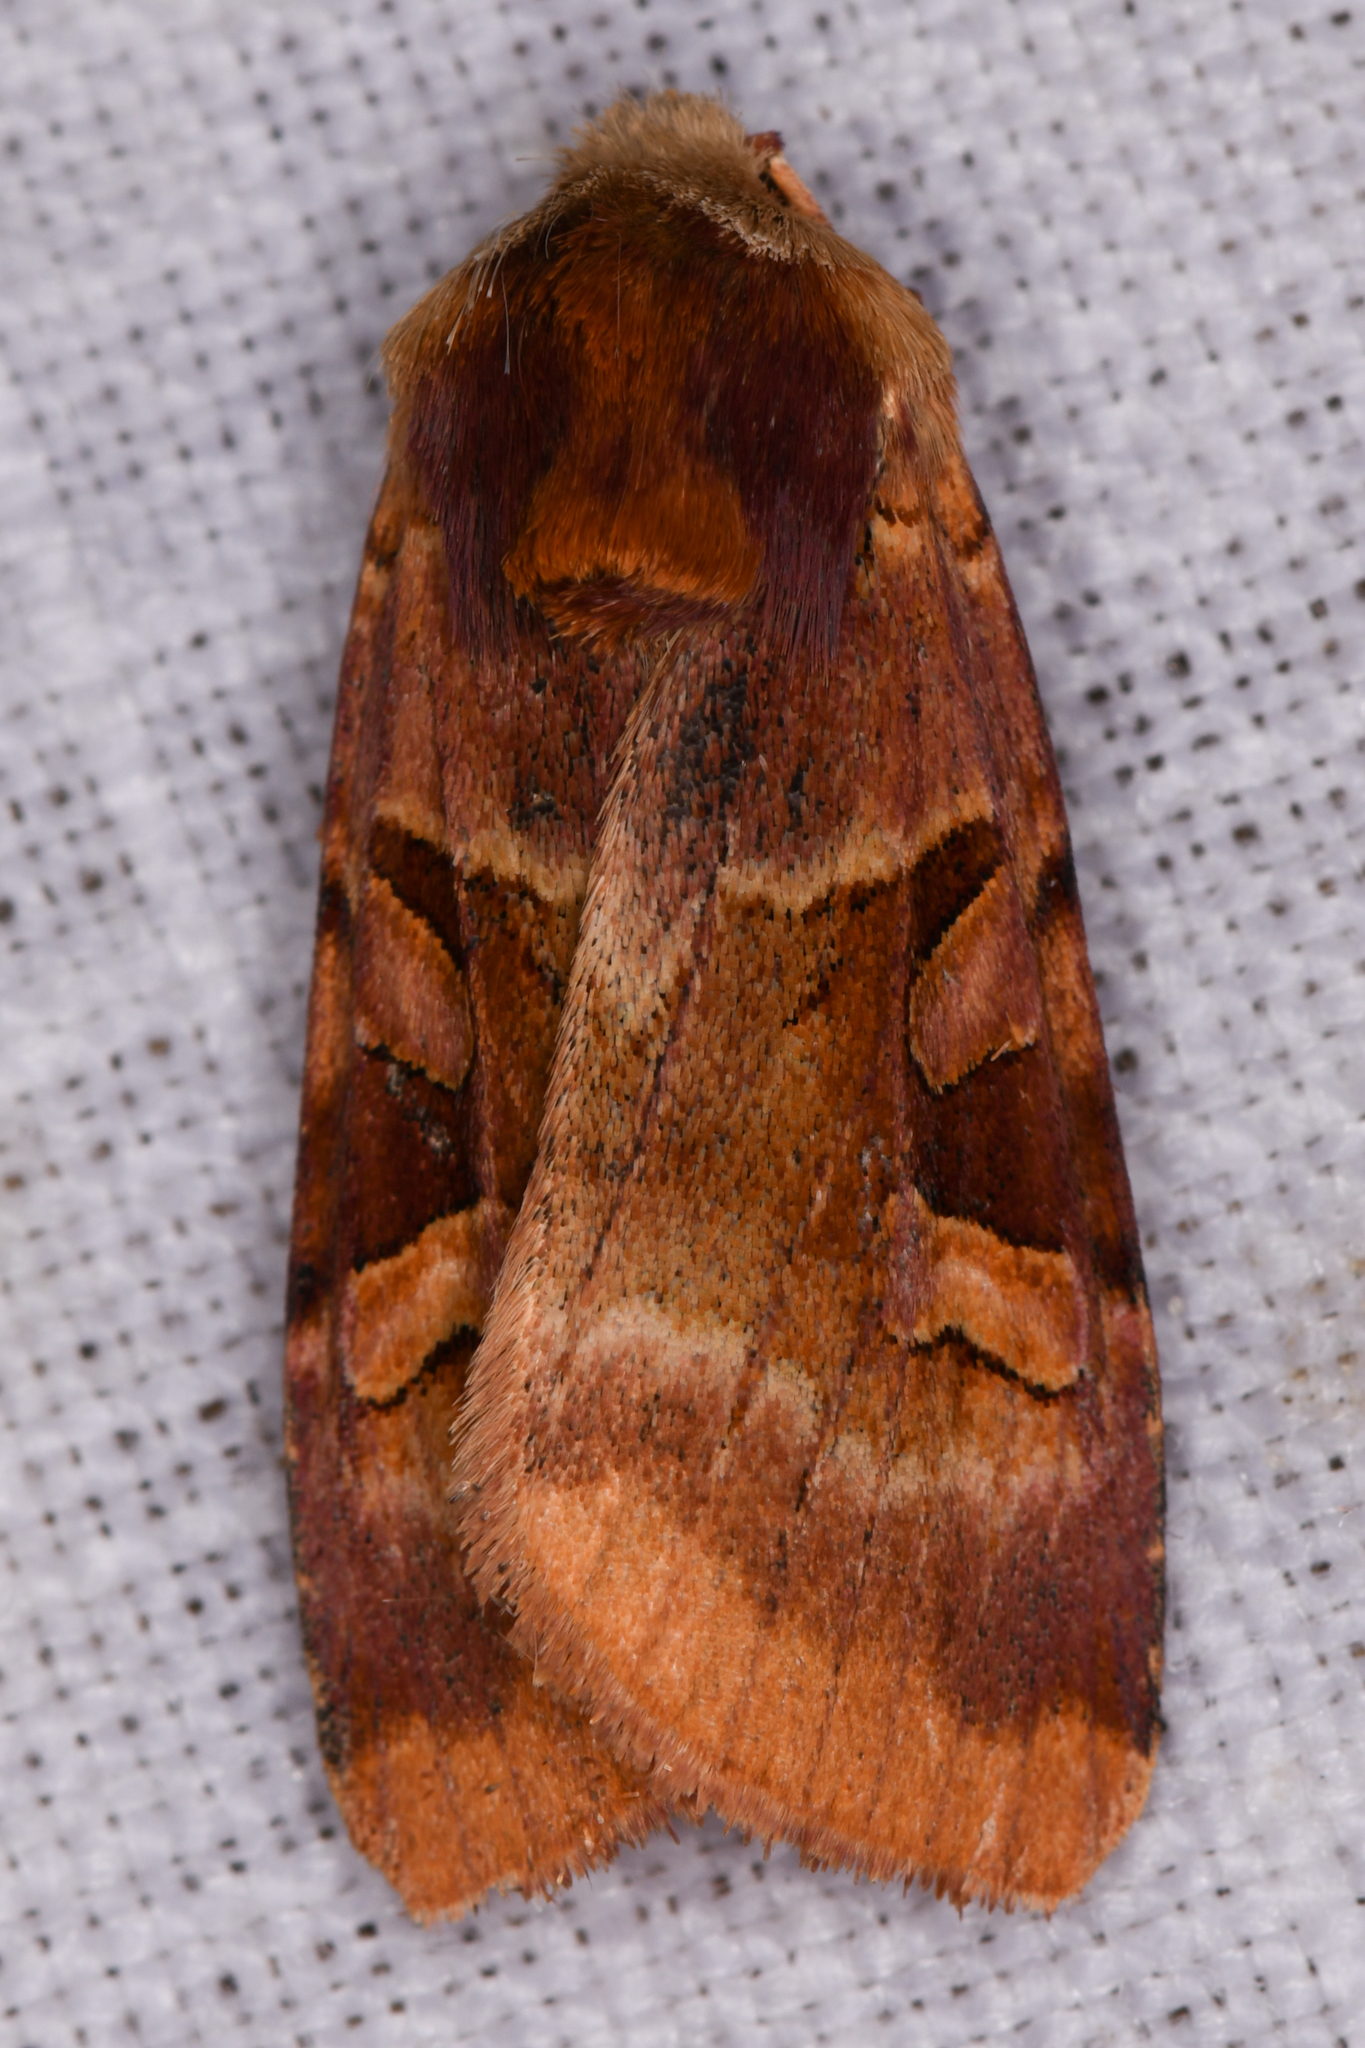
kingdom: Animalia
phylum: Arthropoda
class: Insecta
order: Lepidoptera
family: Noctuidae
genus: Xestia
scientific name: Xestia oblata
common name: Rosy dart
